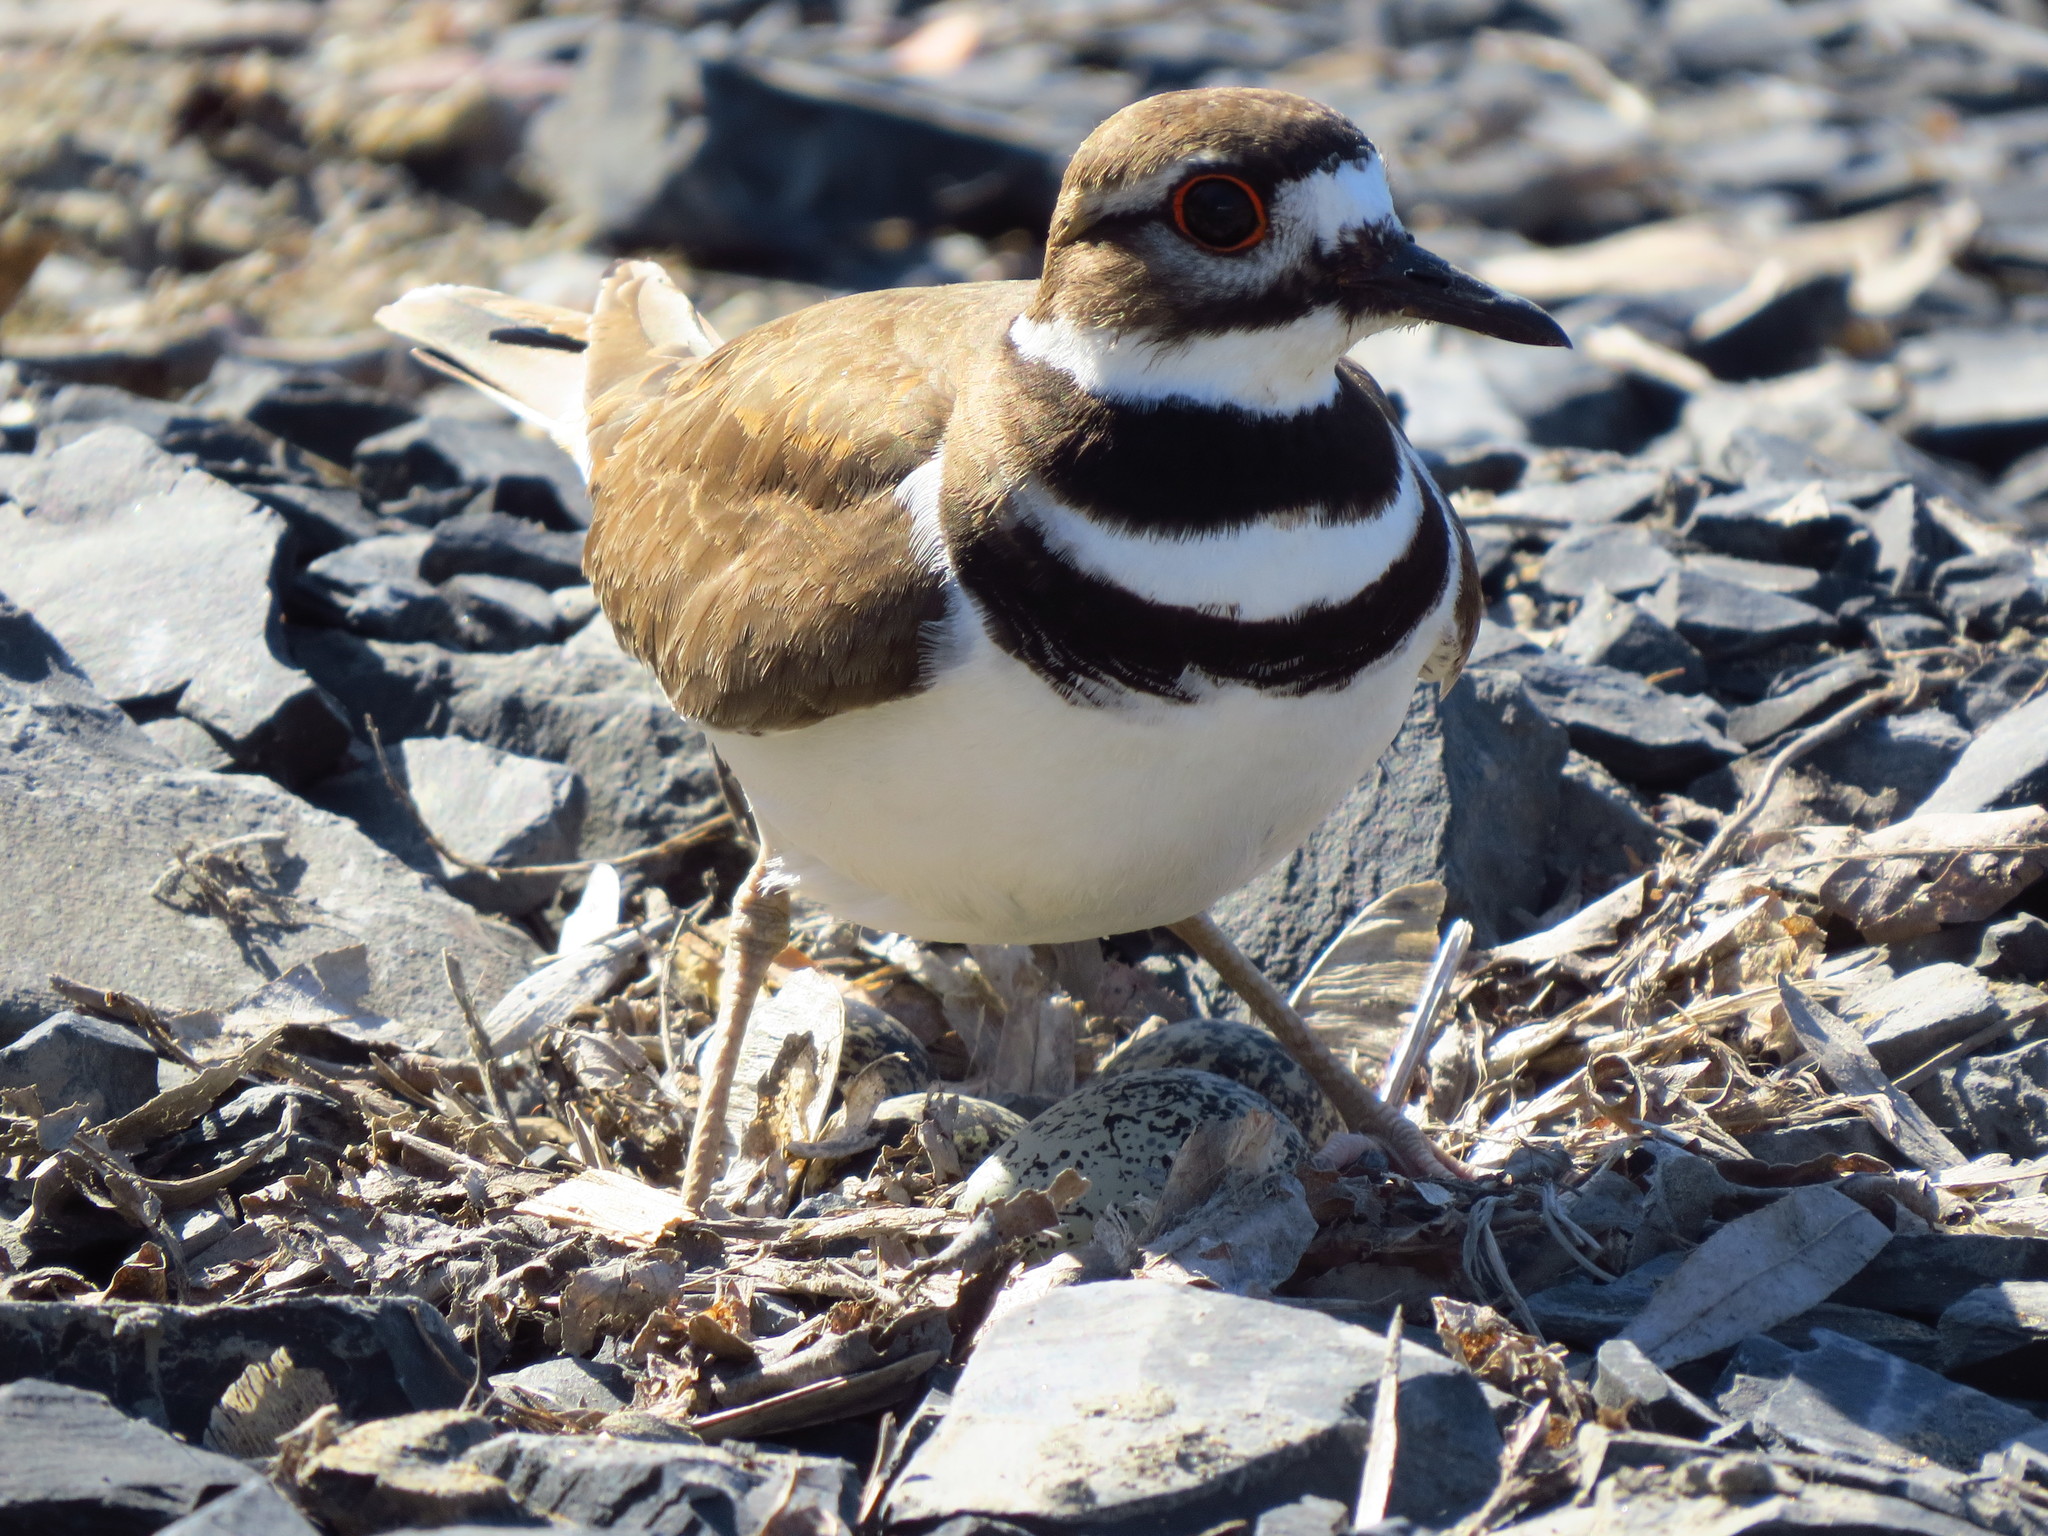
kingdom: Animalia
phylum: Chordata
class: Aves
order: Charadriiformes
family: Charadriidae
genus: Charadrius
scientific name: Charadrius vociferus
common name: Killdeer
